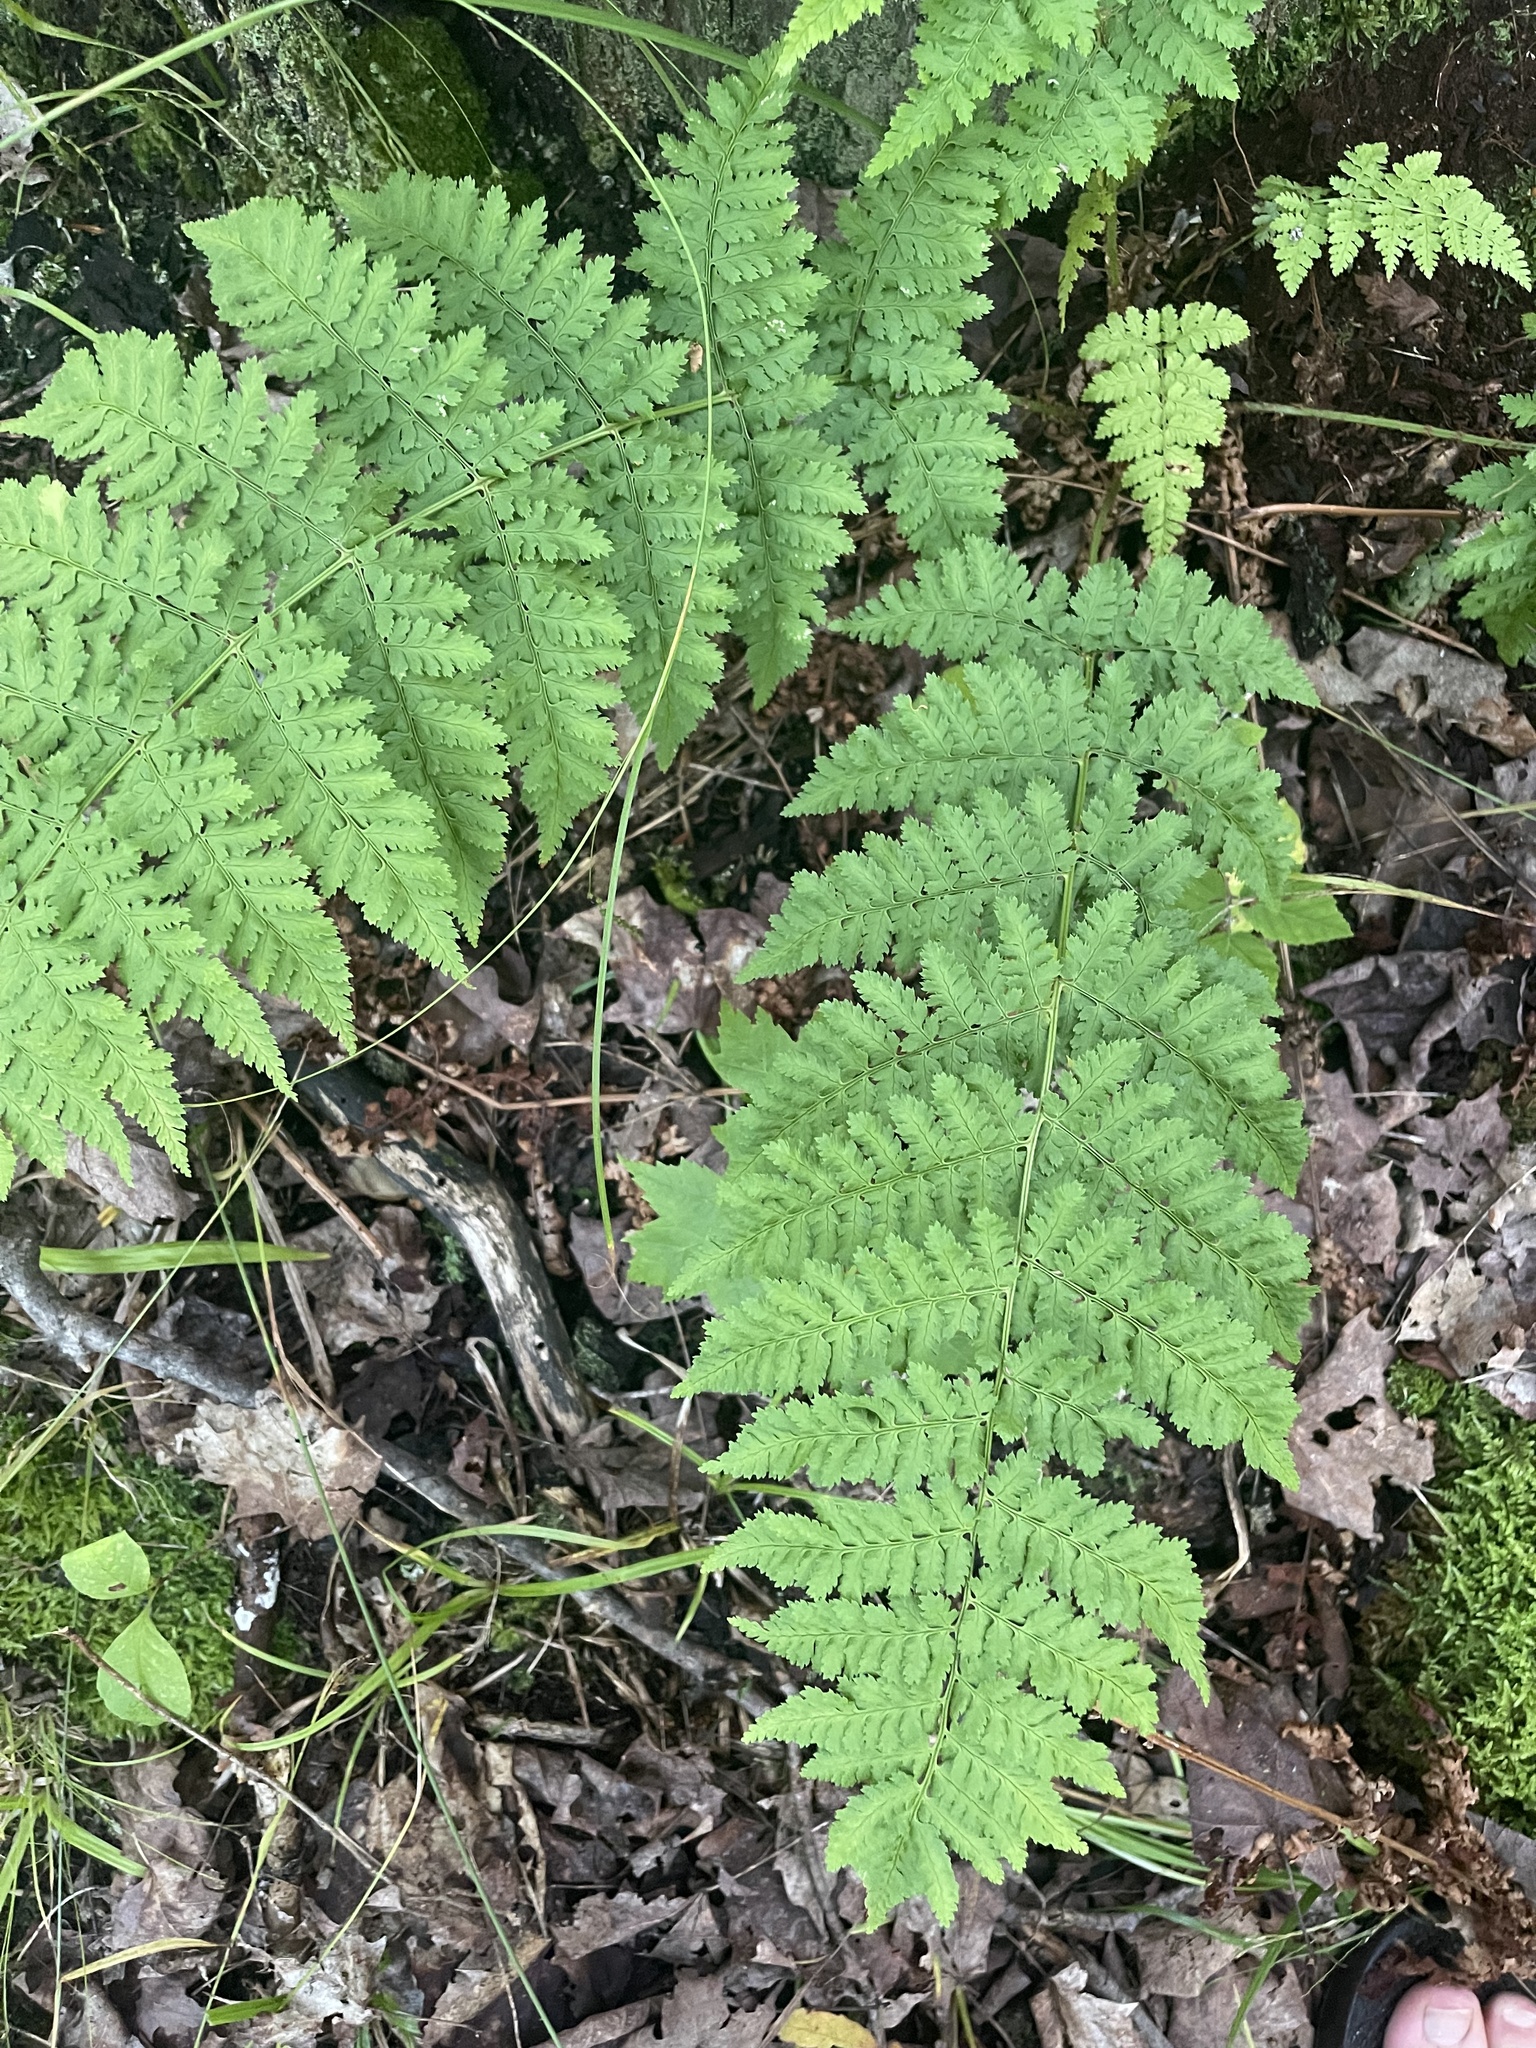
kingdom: Plantae
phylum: Tracheophyta
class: Polypodiopsida
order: Polypodiales
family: Dryopteridaceae
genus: Dryopteris
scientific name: Dryopteris intermedia
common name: Evergreen wood fern
